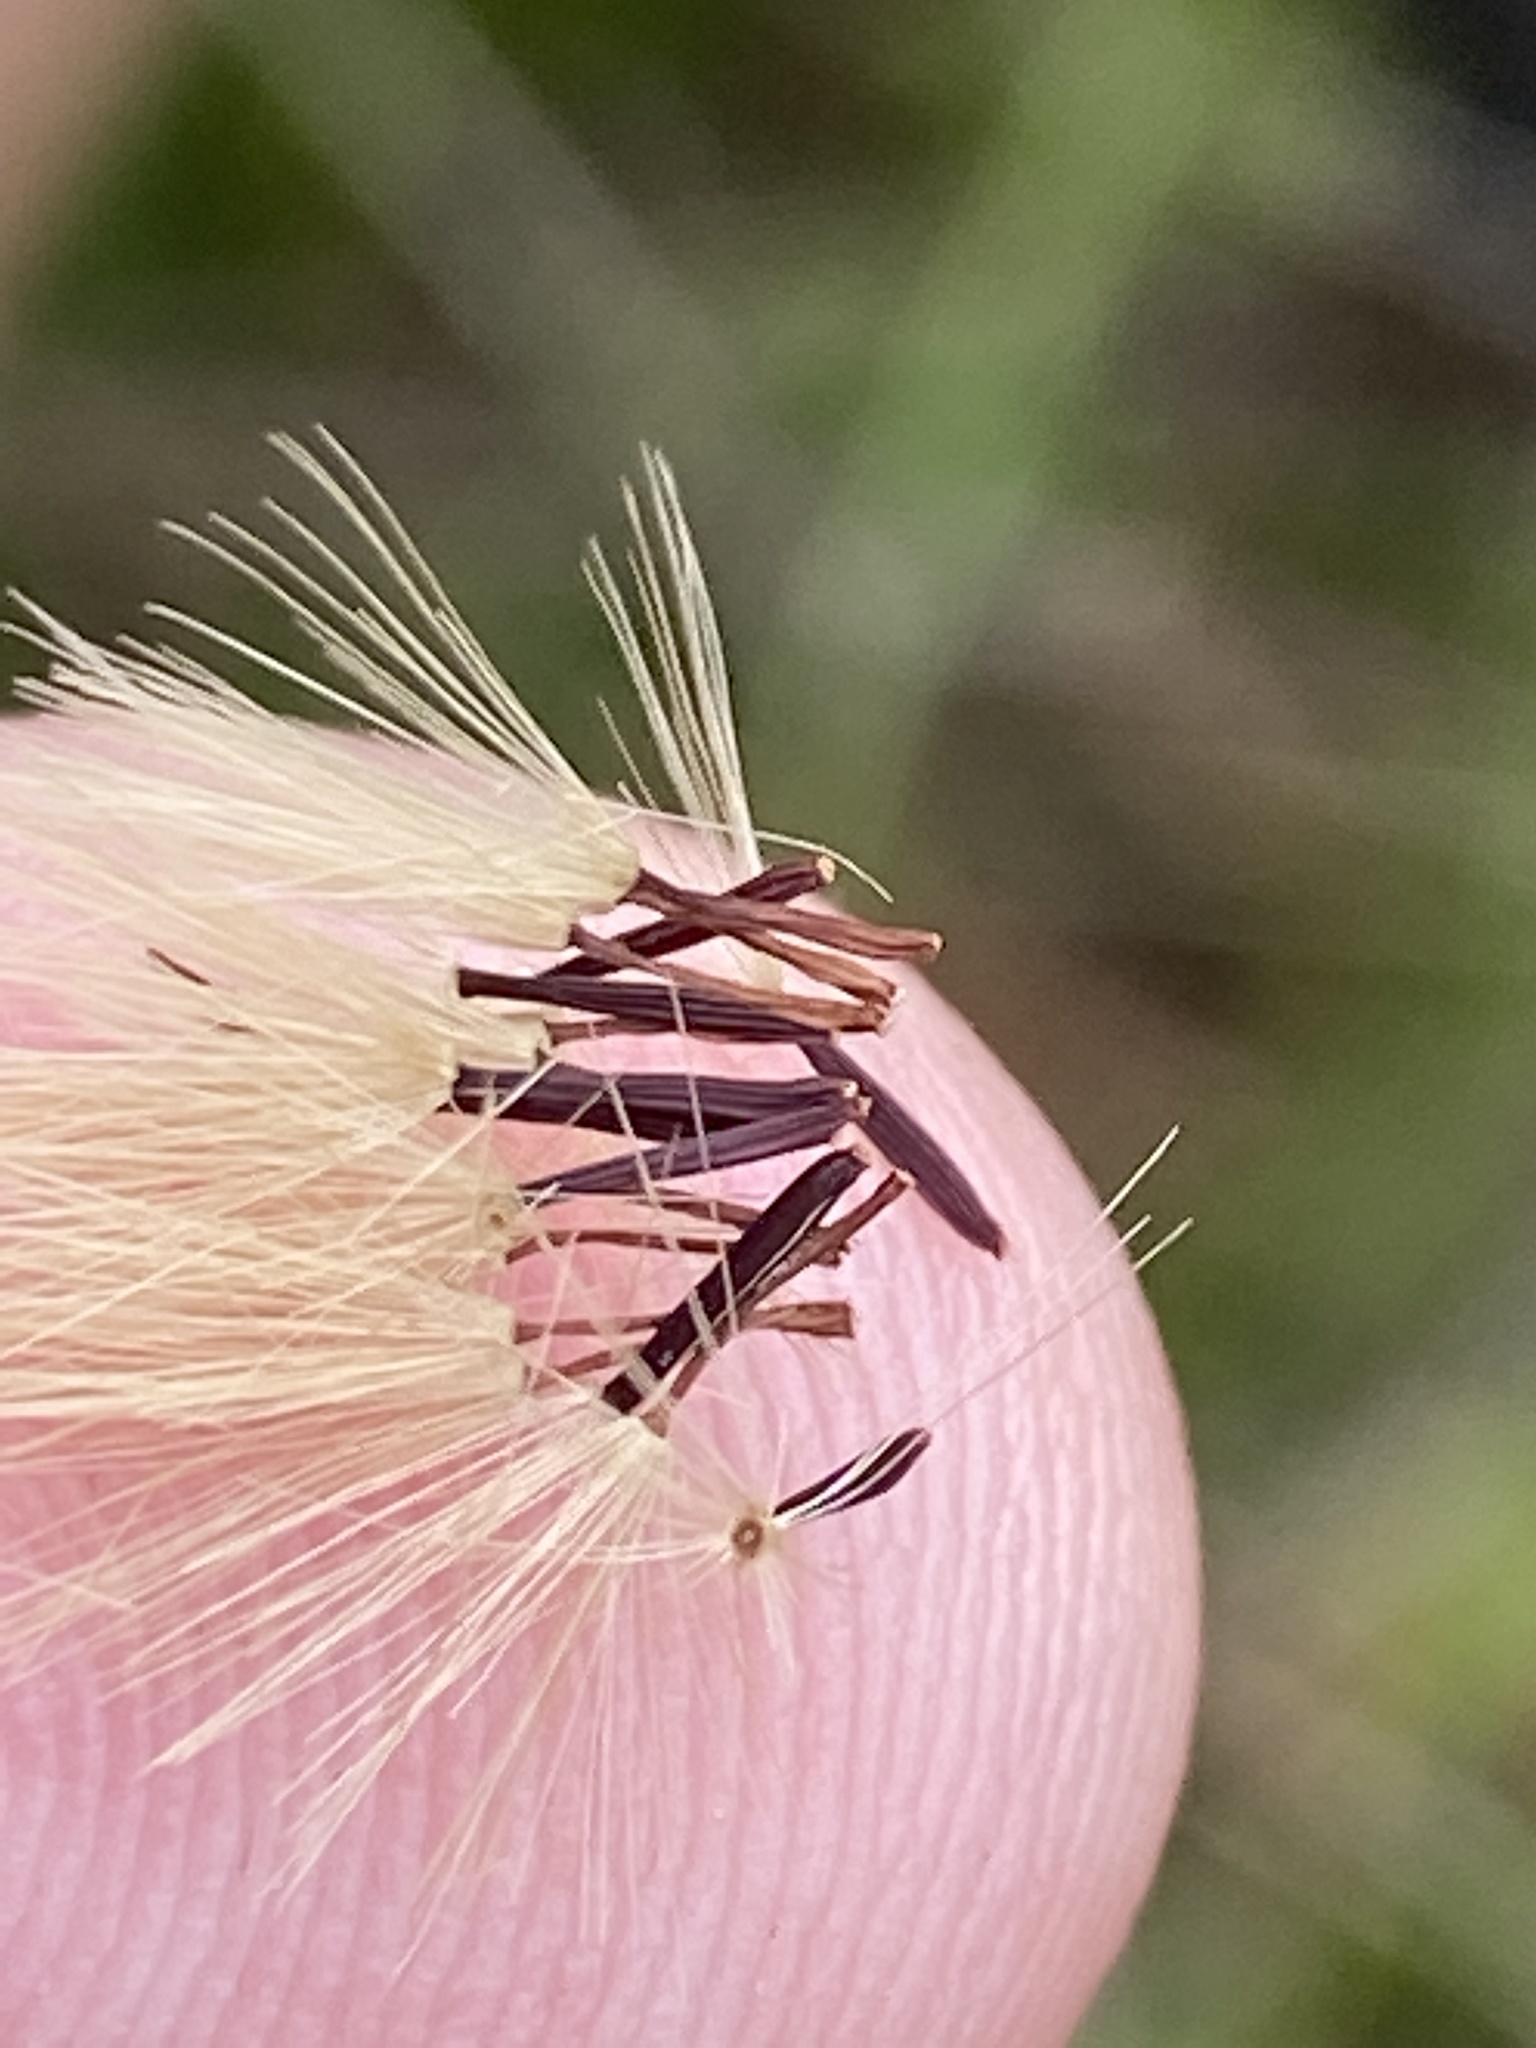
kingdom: Plantae
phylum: Tracheophyta
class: Magnoliopsida
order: Asterales
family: Asteraceae
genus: Hieracium
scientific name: Hieracium gronovii
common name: Beaked hawkweed
